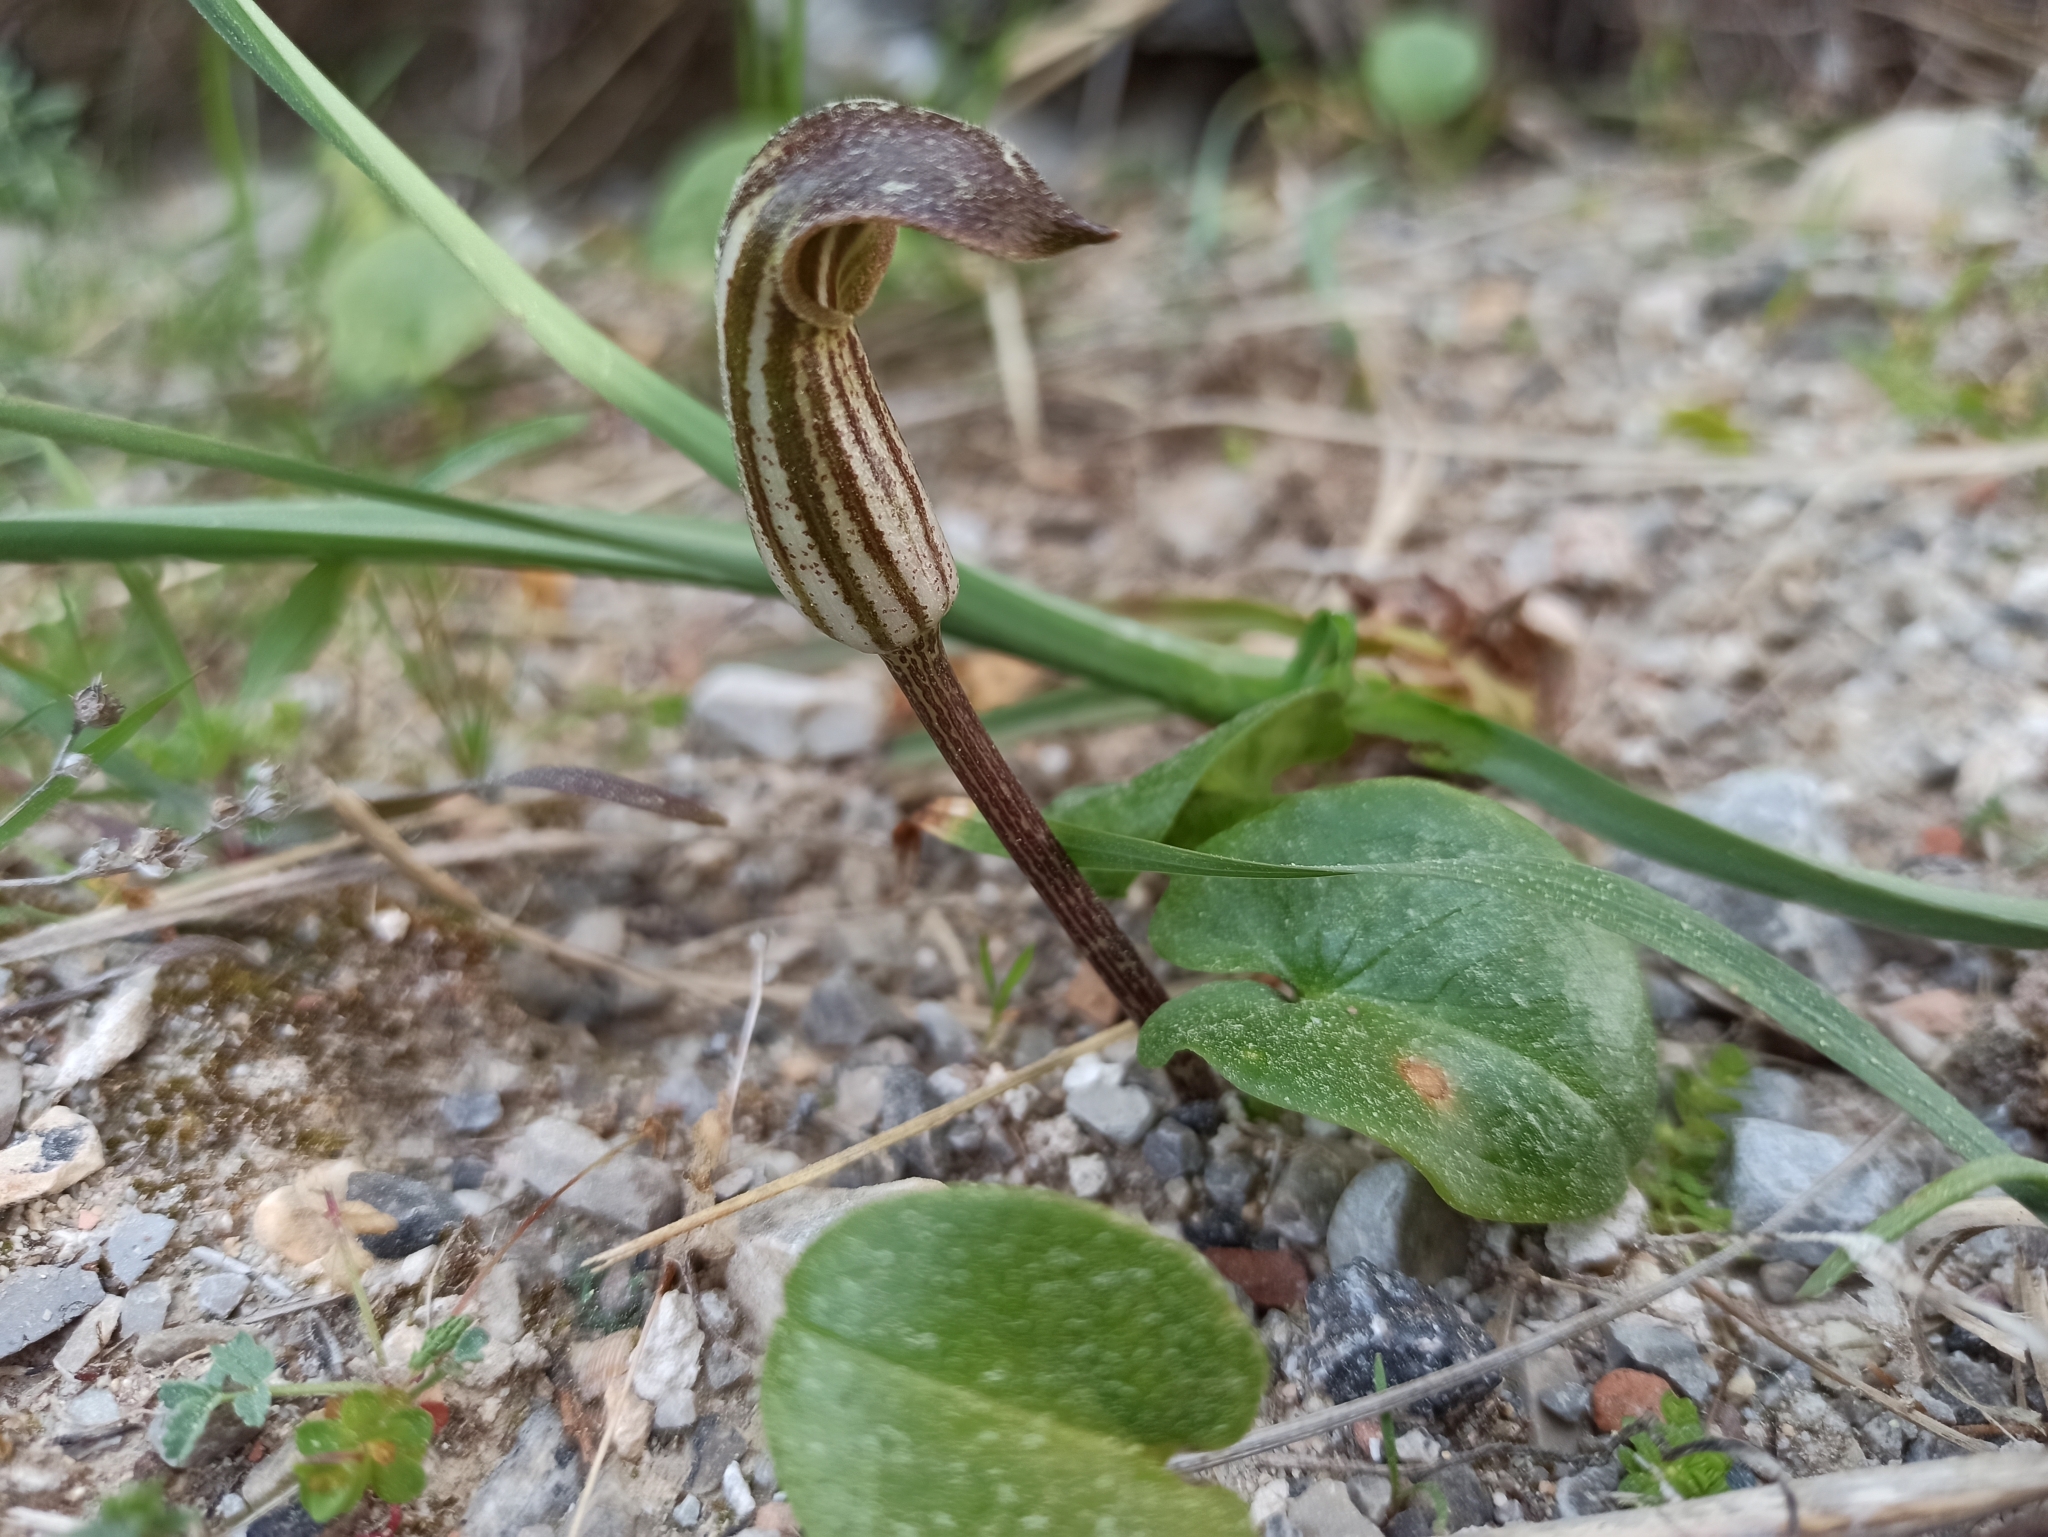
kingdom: Plantae
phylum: Tracheophyta
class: Liliopsida
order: Alismatales
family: Araceae
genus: Arisarum
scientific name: Arisarum vulgare
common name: Common arisarum
